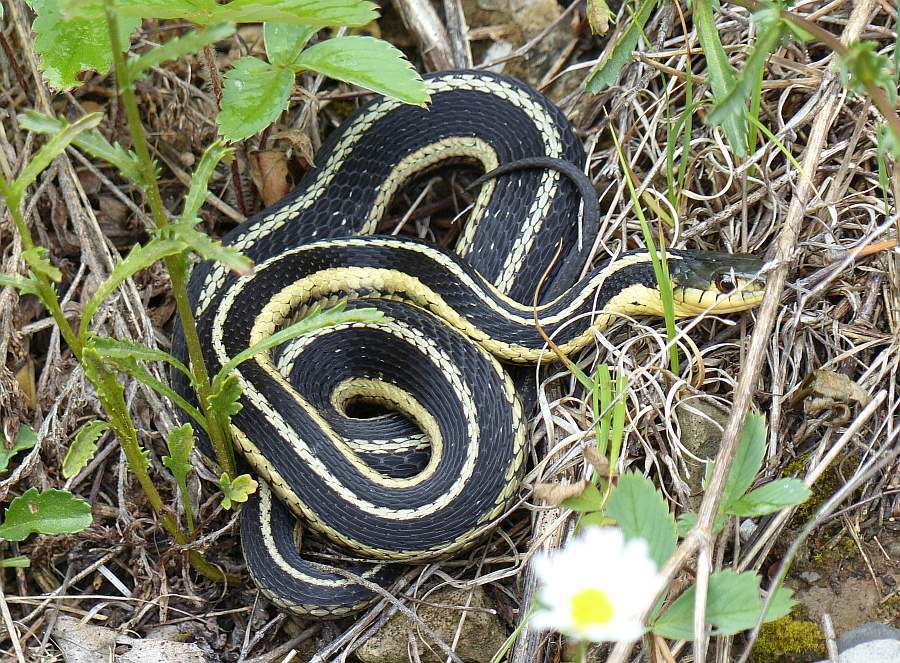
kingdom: Animalia
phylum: Chordata
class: Squamata
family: Colubridae
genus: Thamnophis
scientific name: Thamnophis sirtalis
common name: Common garter snake
